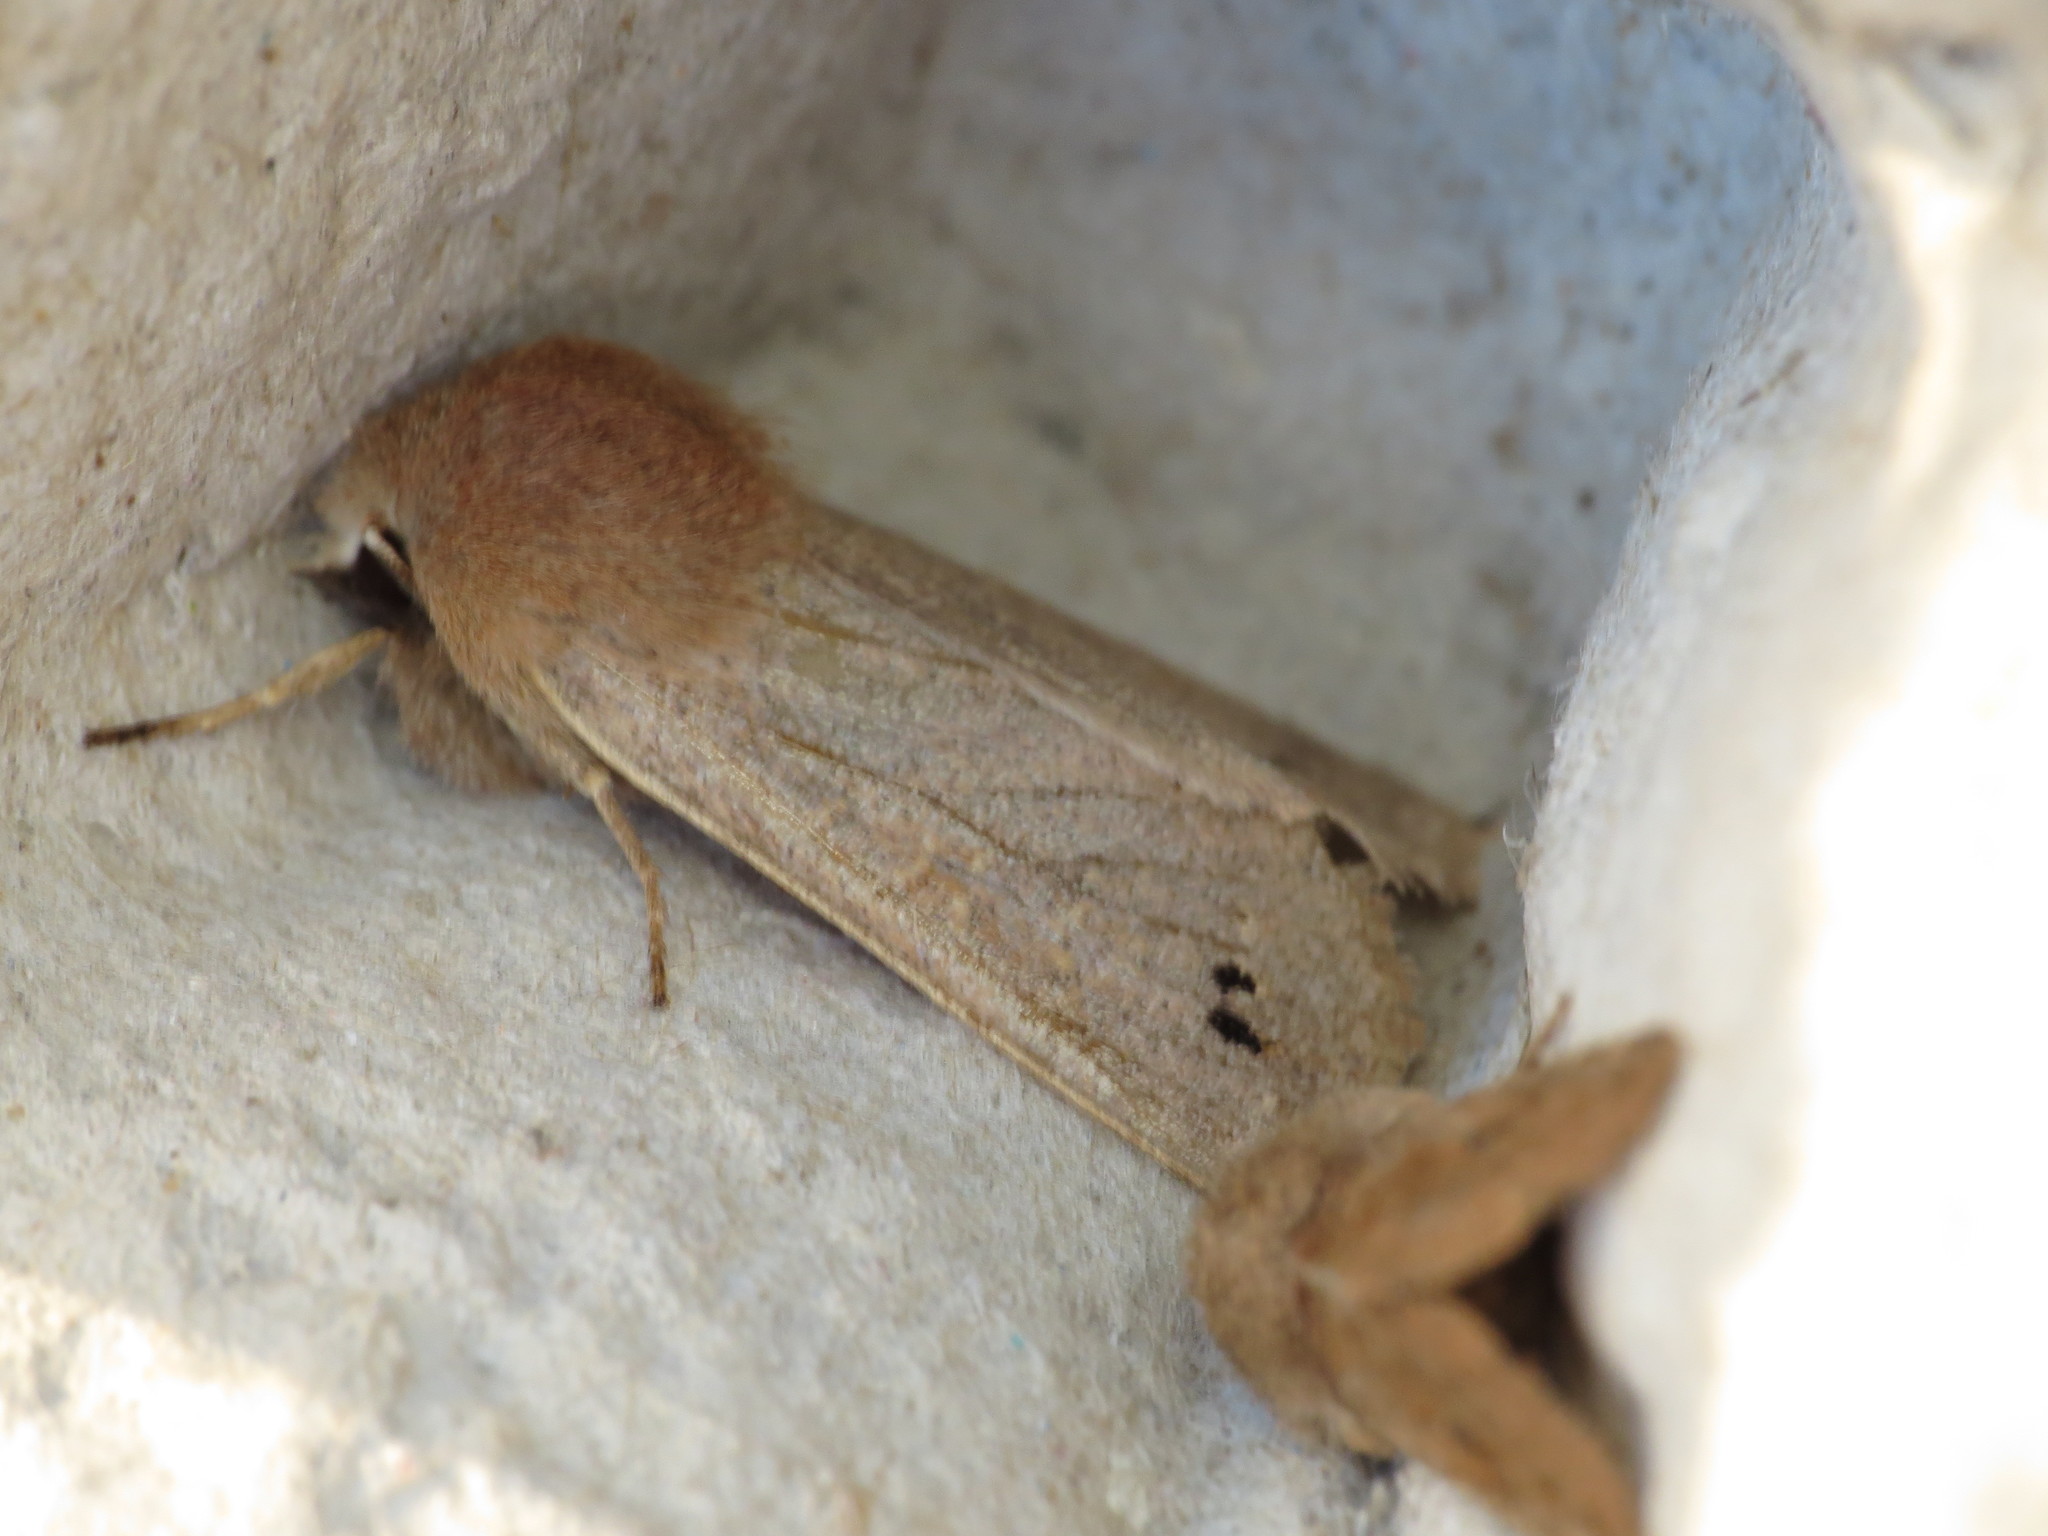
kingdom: Animalia
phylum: Arthropoda
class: Insecta
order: Lepidoptera
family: Noctuidae
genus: Anorthoa
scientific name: Anorthoa munda
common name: Twin-spotted quaker
